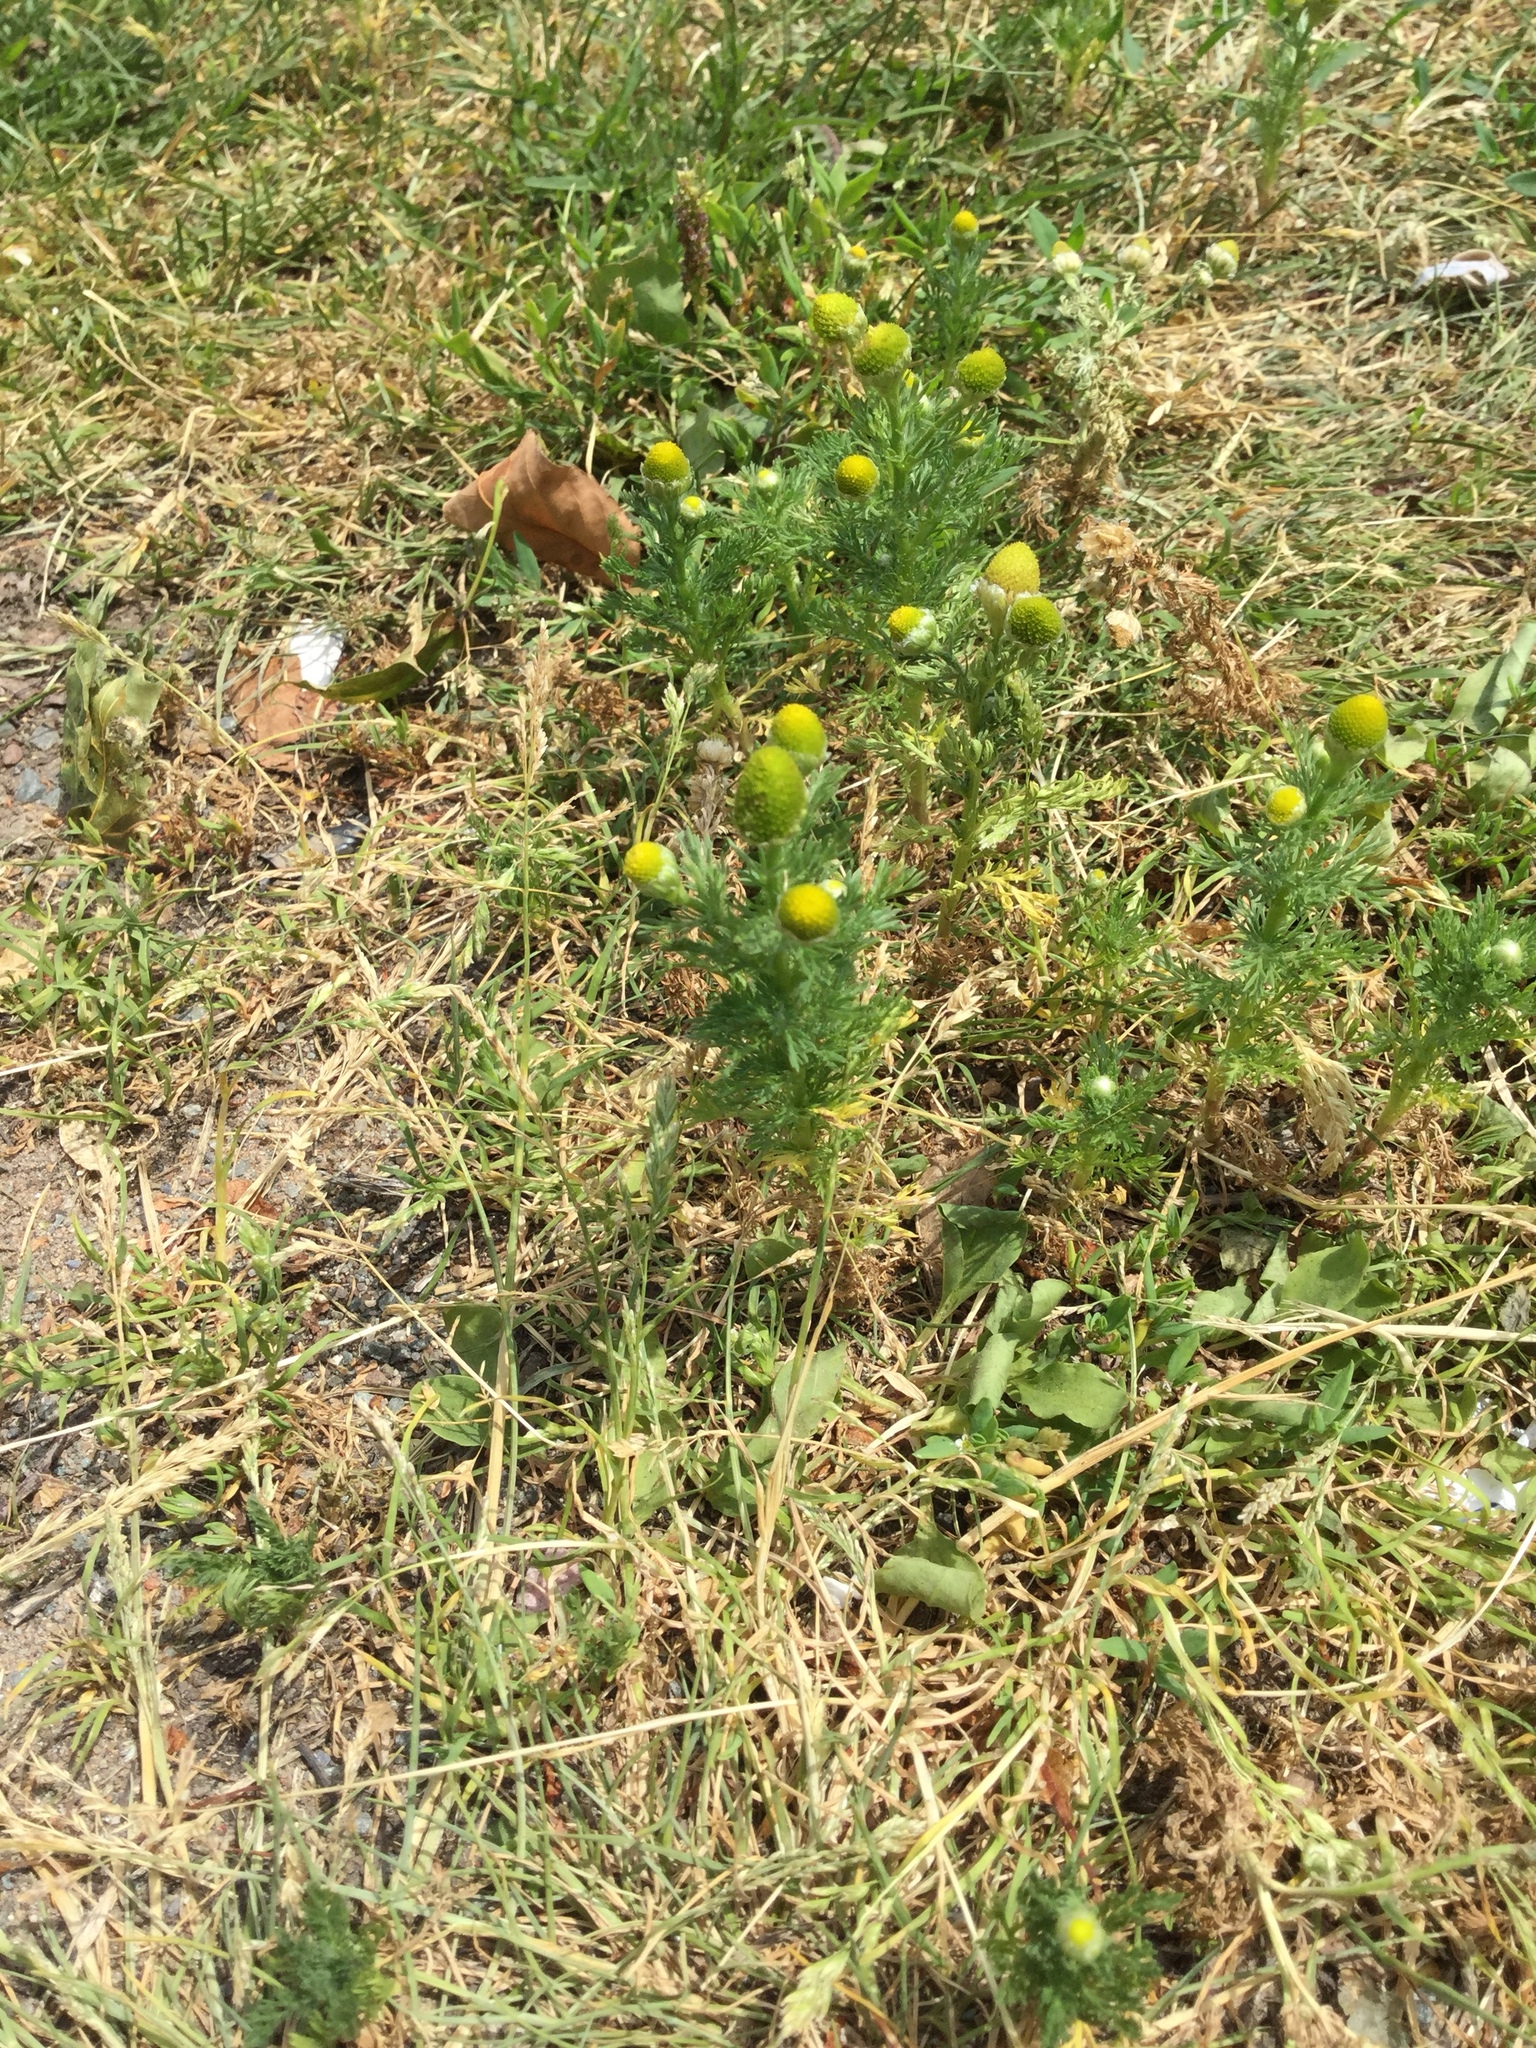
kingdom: Plantae
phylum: Tracheophyta
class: Magnoliopsida
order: Asterales
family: Asteraceae
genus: Matricaria
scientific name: Matricaria discoidea
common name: Disc mayweed
